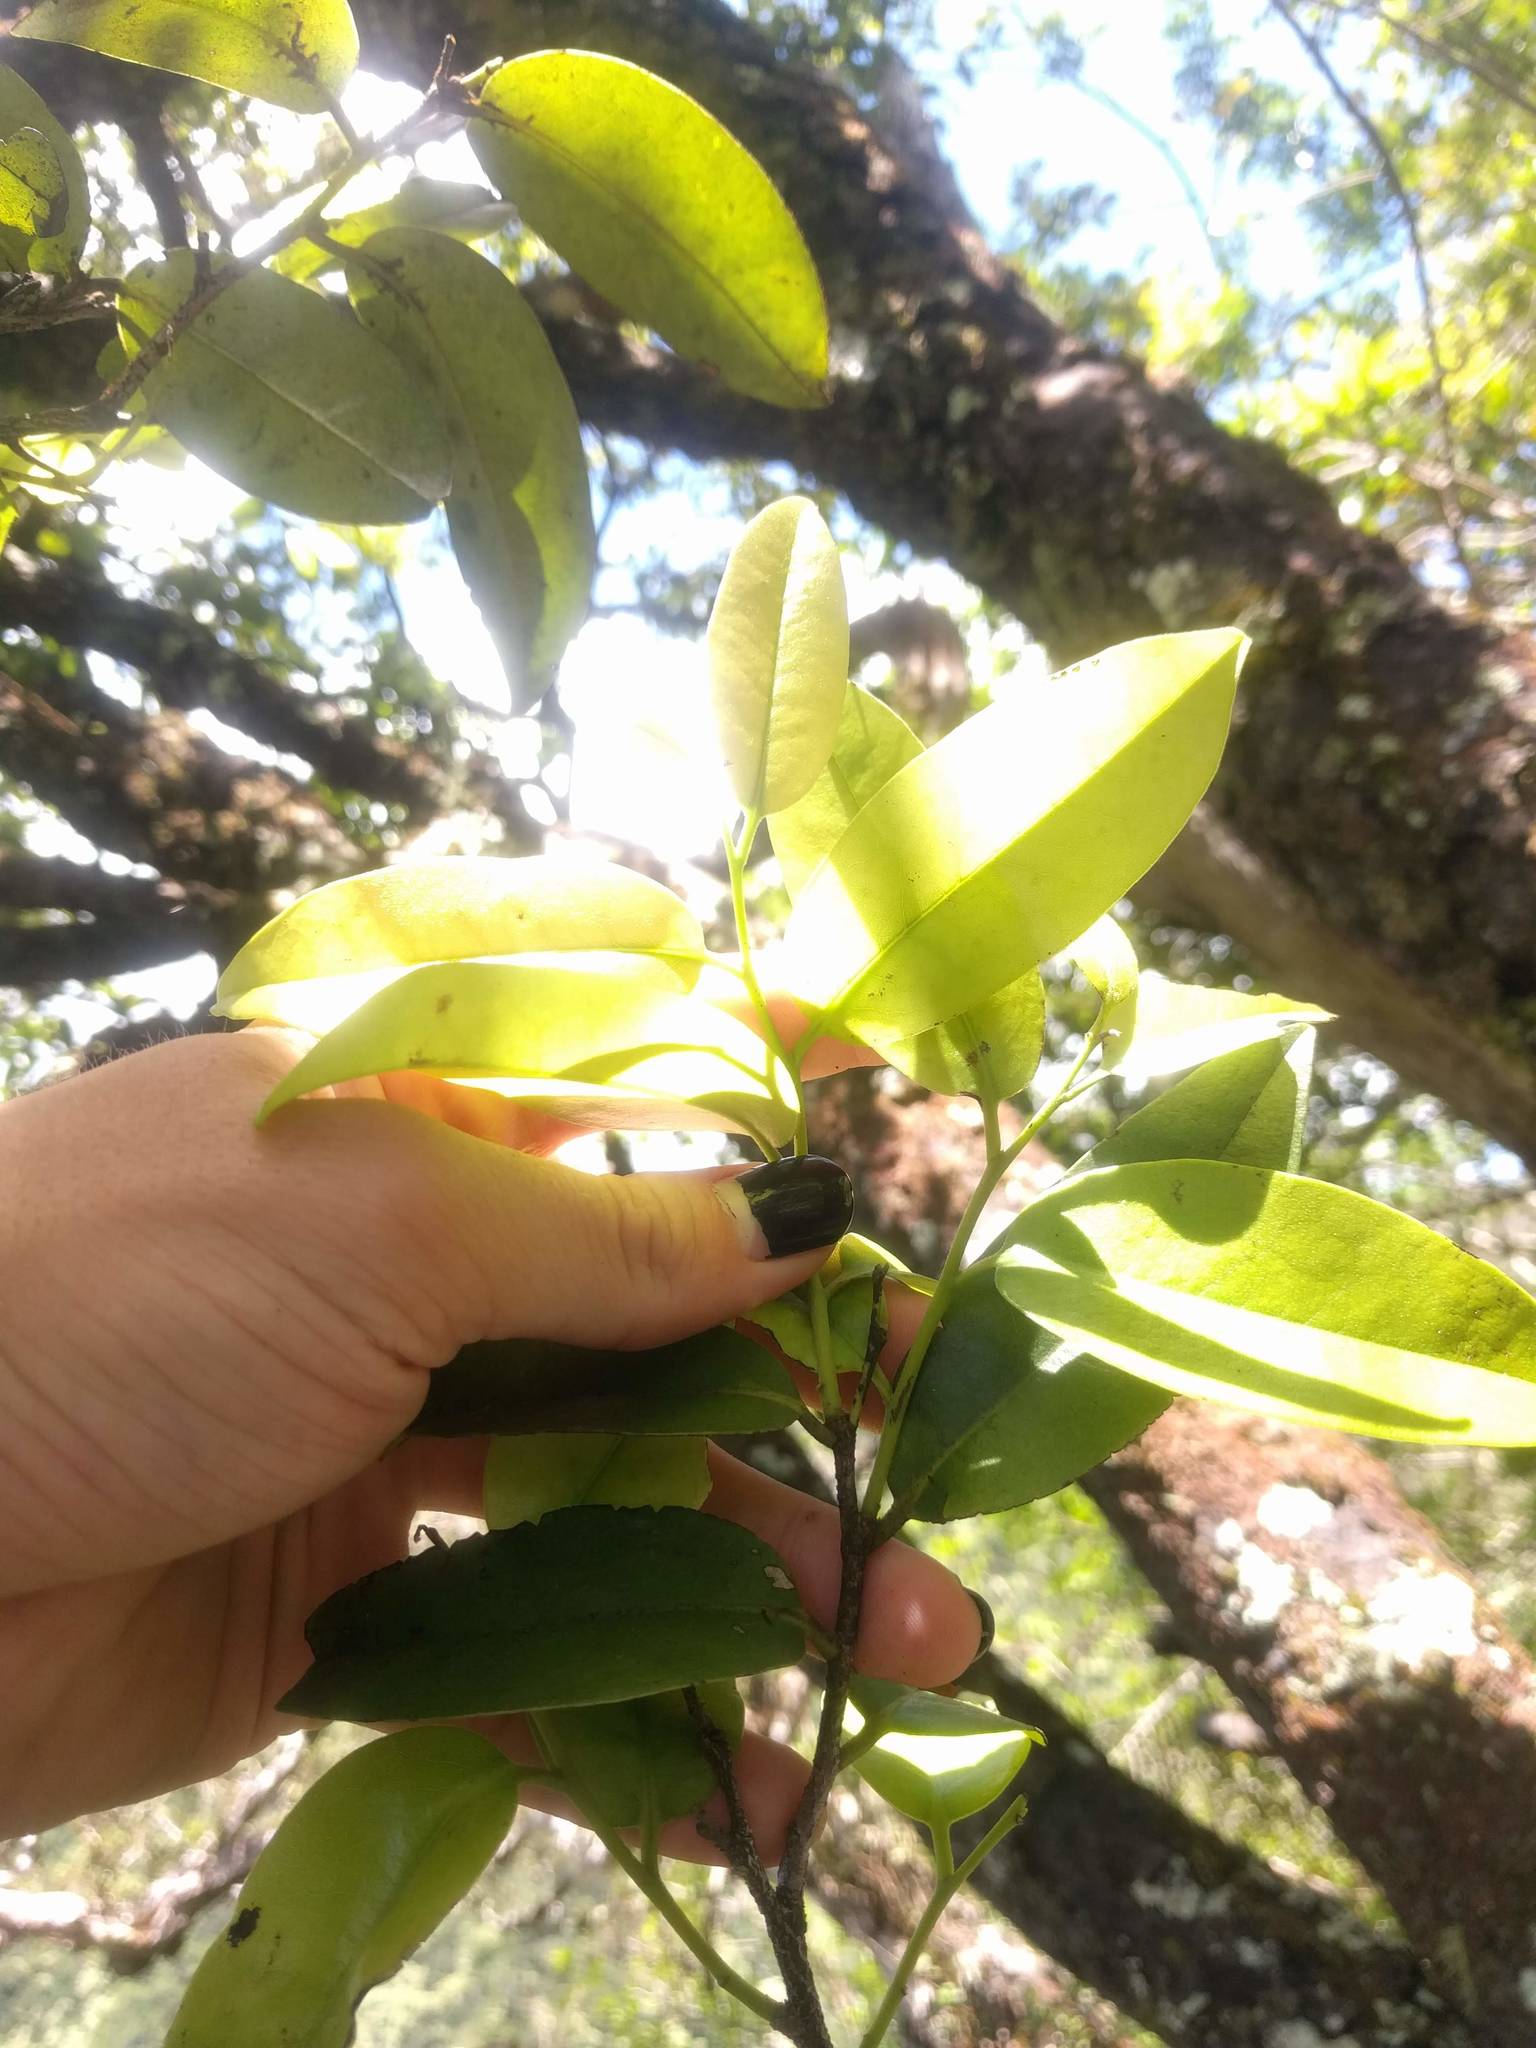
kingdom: Plantae
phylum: Tracheophyta
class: Magnoliopsida
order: Ericales
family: Ebenaceae
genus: Diospyros
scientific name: Diospyros sandwicensis
